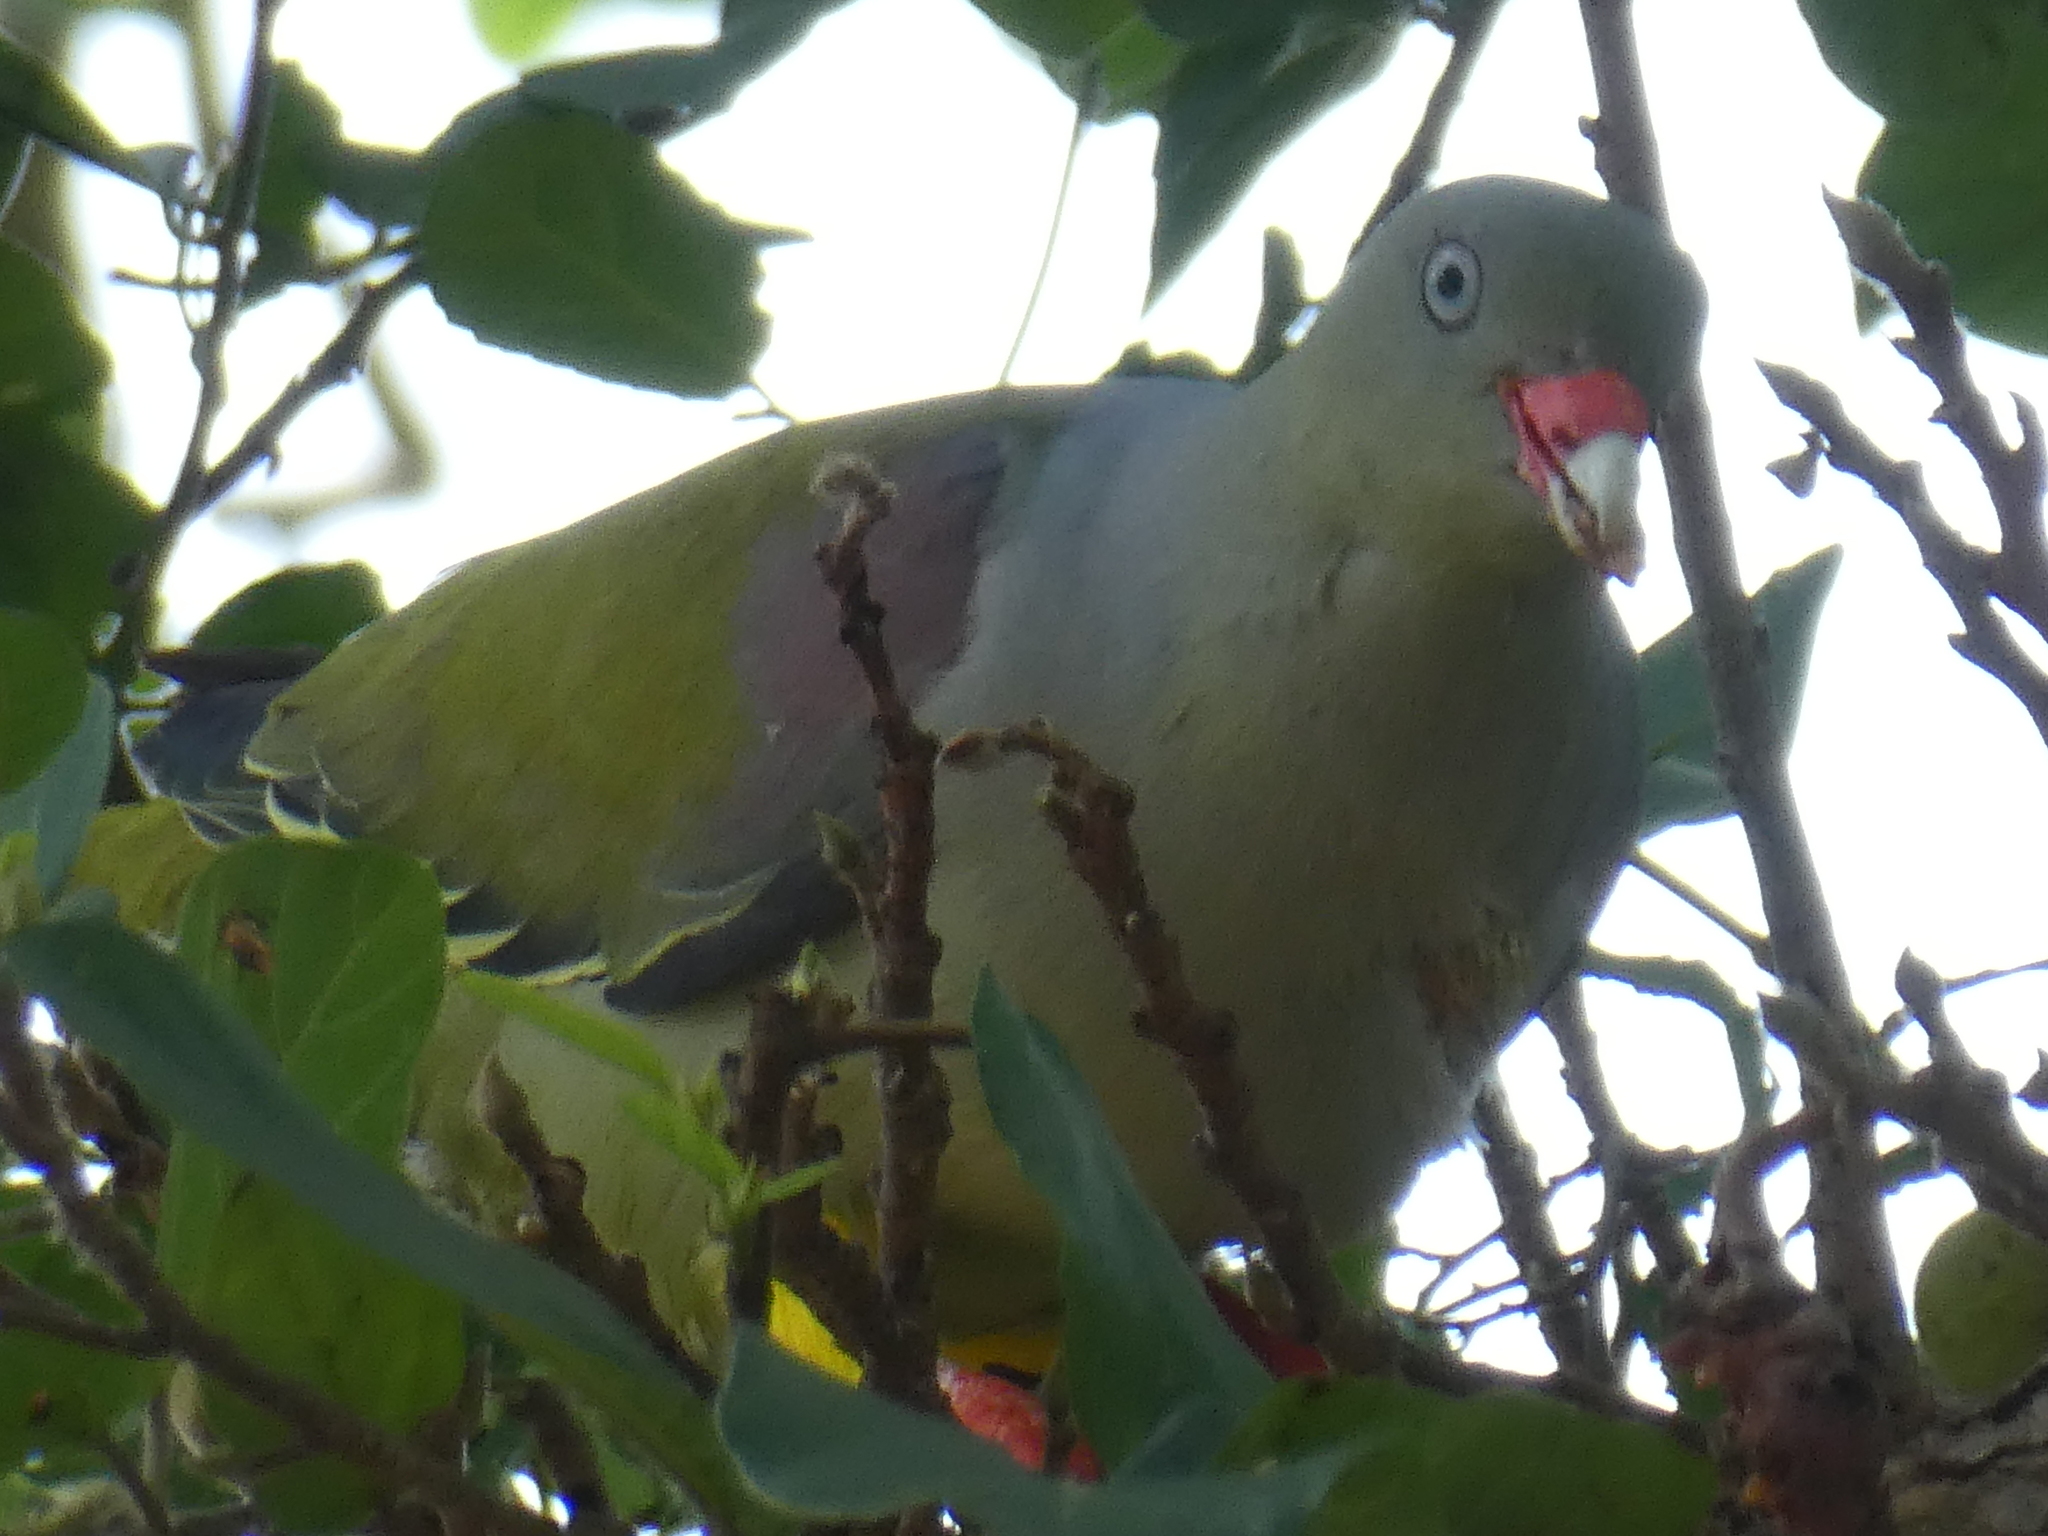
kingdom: Animalia
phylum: Chordata
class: Aves
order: Columbiformes
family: Columbidae
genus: Treron
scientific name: Treron calvus
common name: African green pigeon
